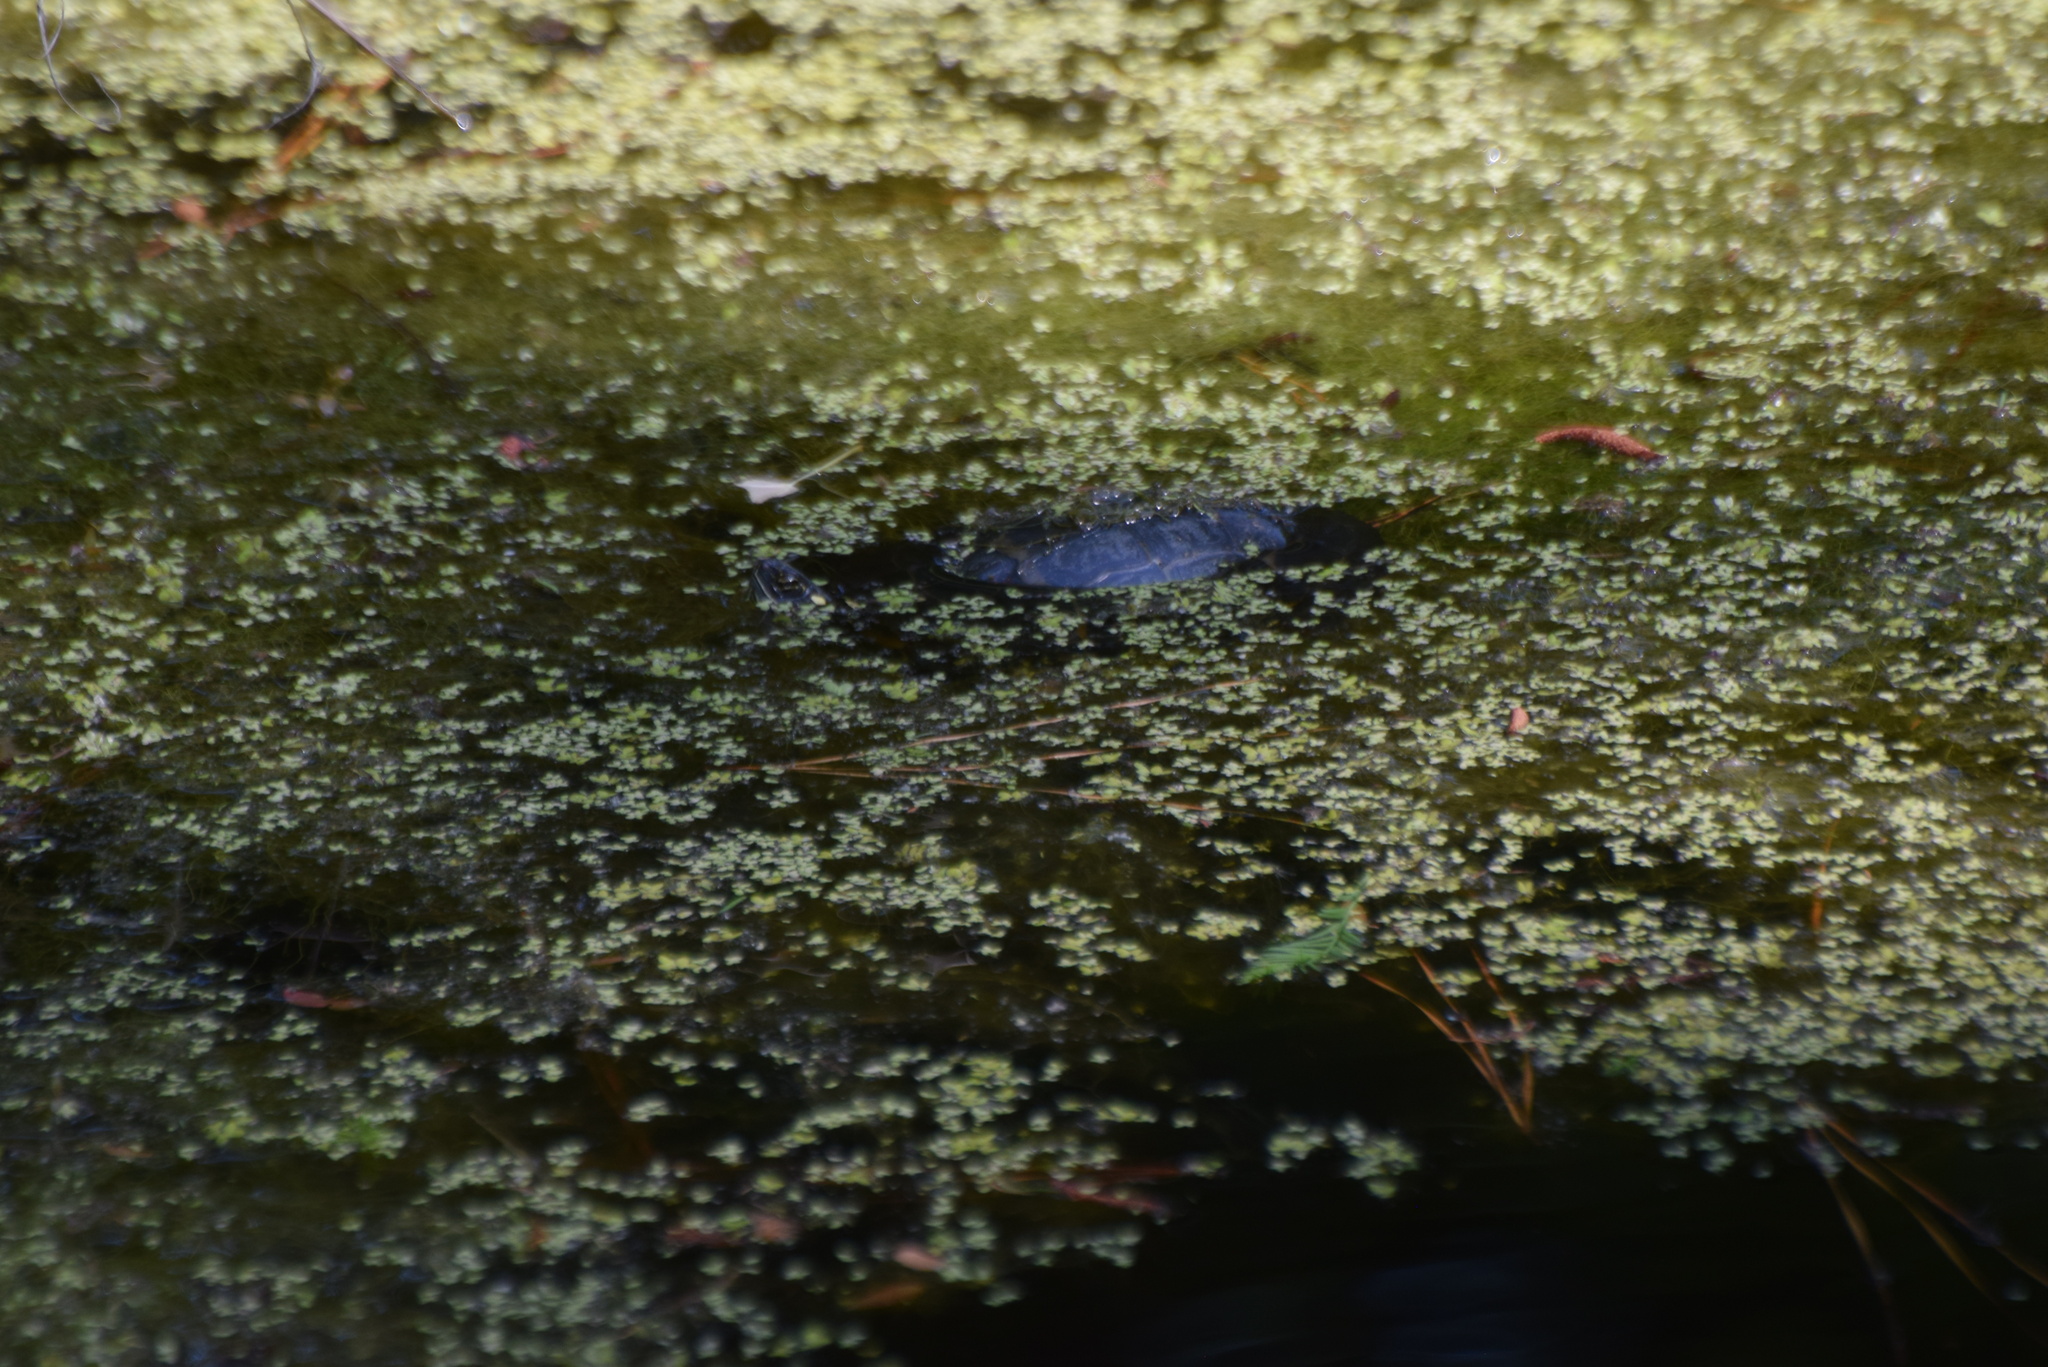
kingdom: Animalia
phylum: Chordata
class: Testudines
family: Emydidae
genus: Chrysemys
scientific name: Chrysemys picta
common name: Painted turtle
